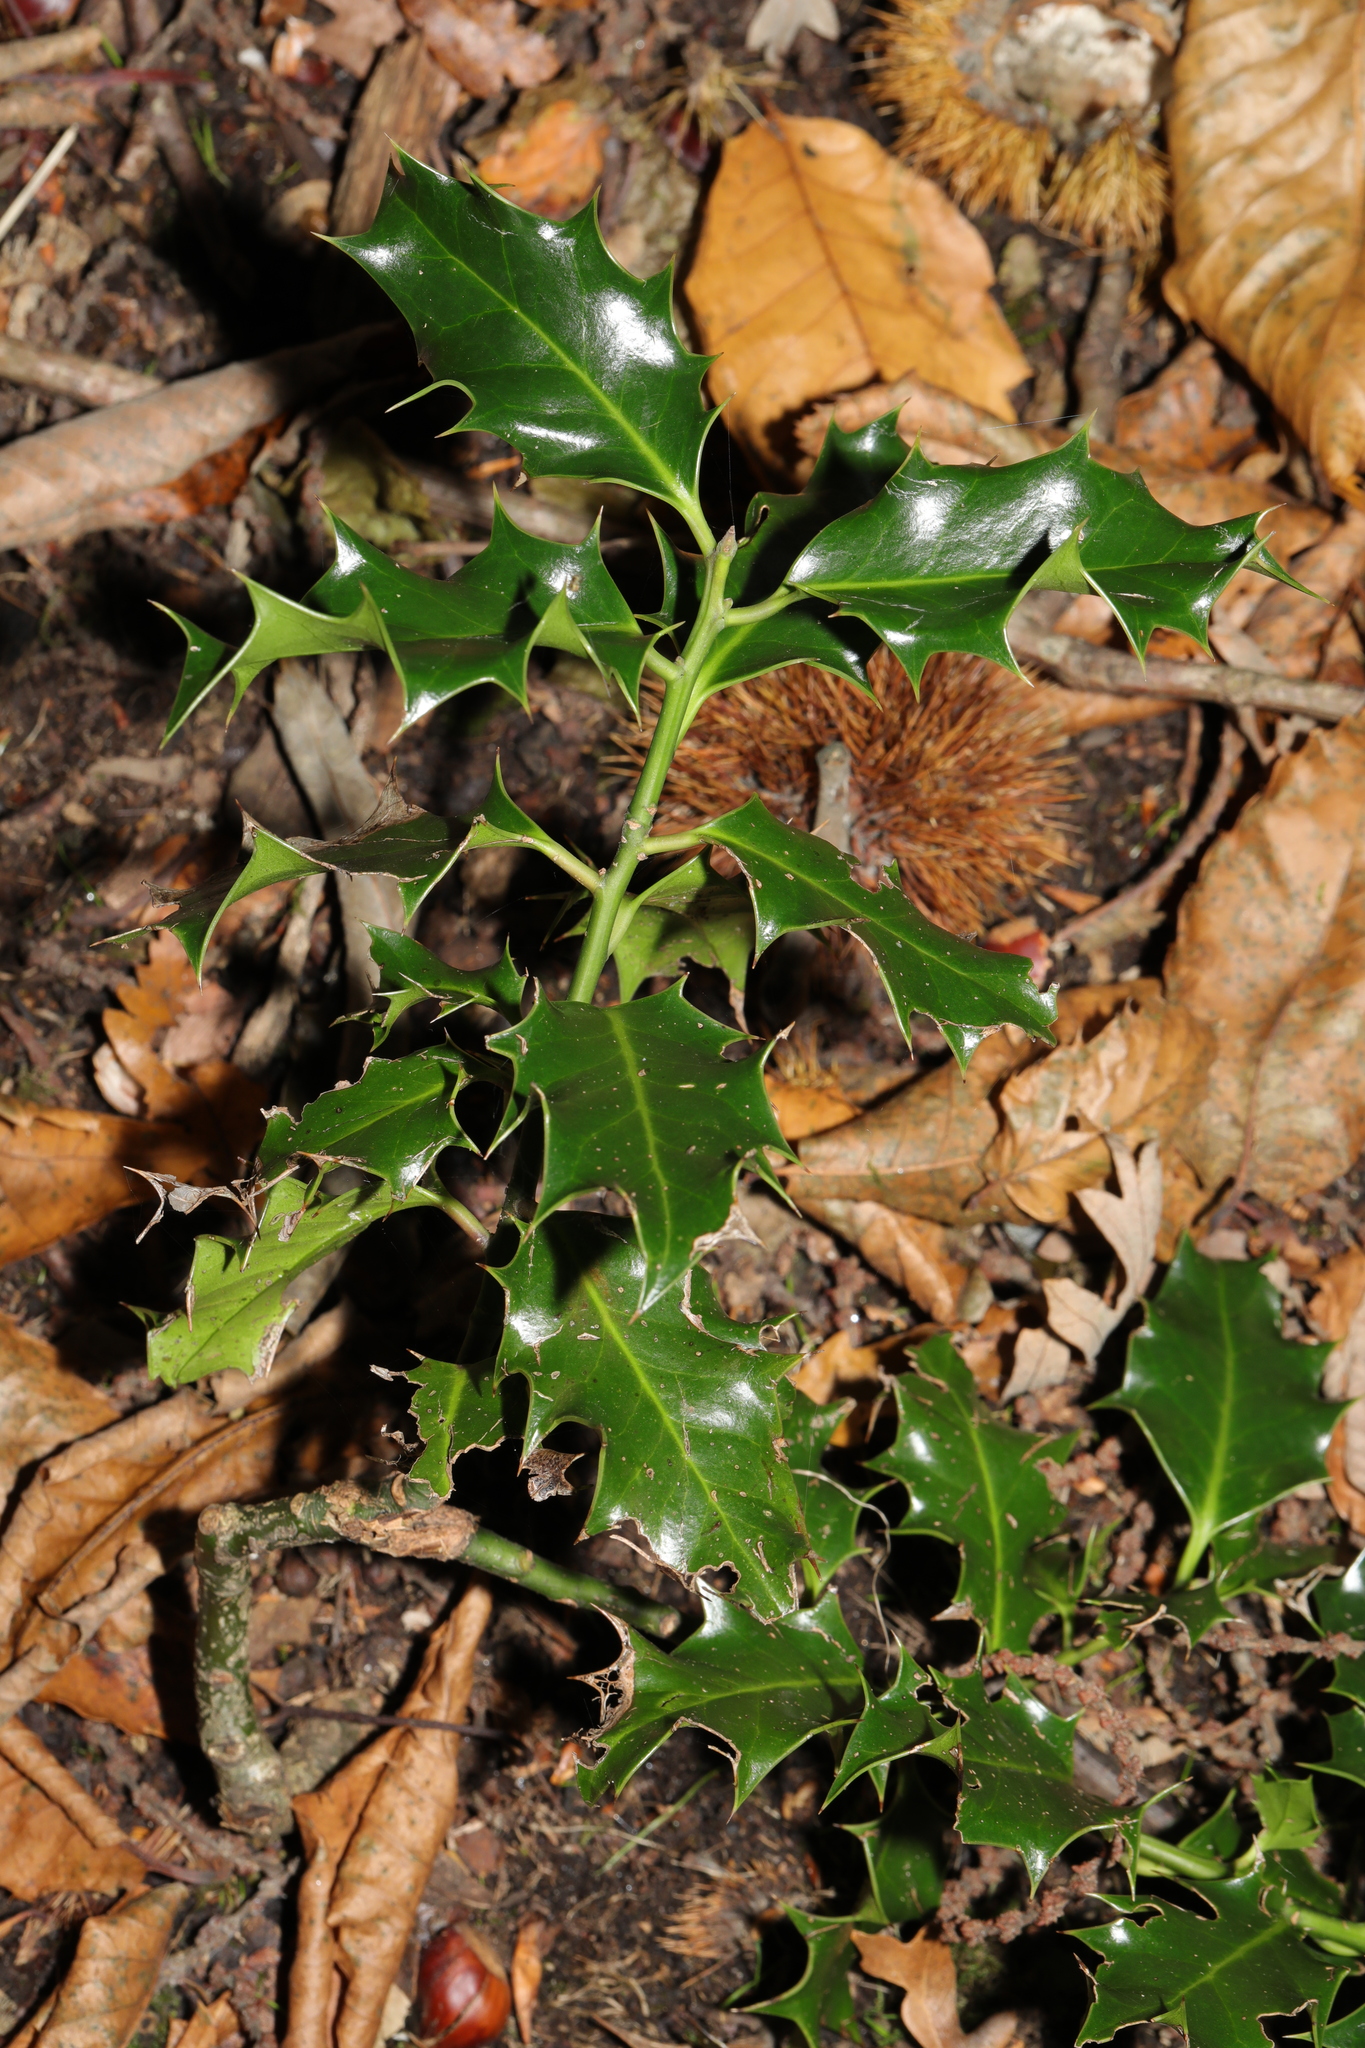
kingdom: Plantae
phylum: Tracheophyta
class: Magnoliopsida
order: Aquifoliales
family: Aquifoliaceae
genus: Ilex
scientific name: Ilex aquifolium
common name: English holly
